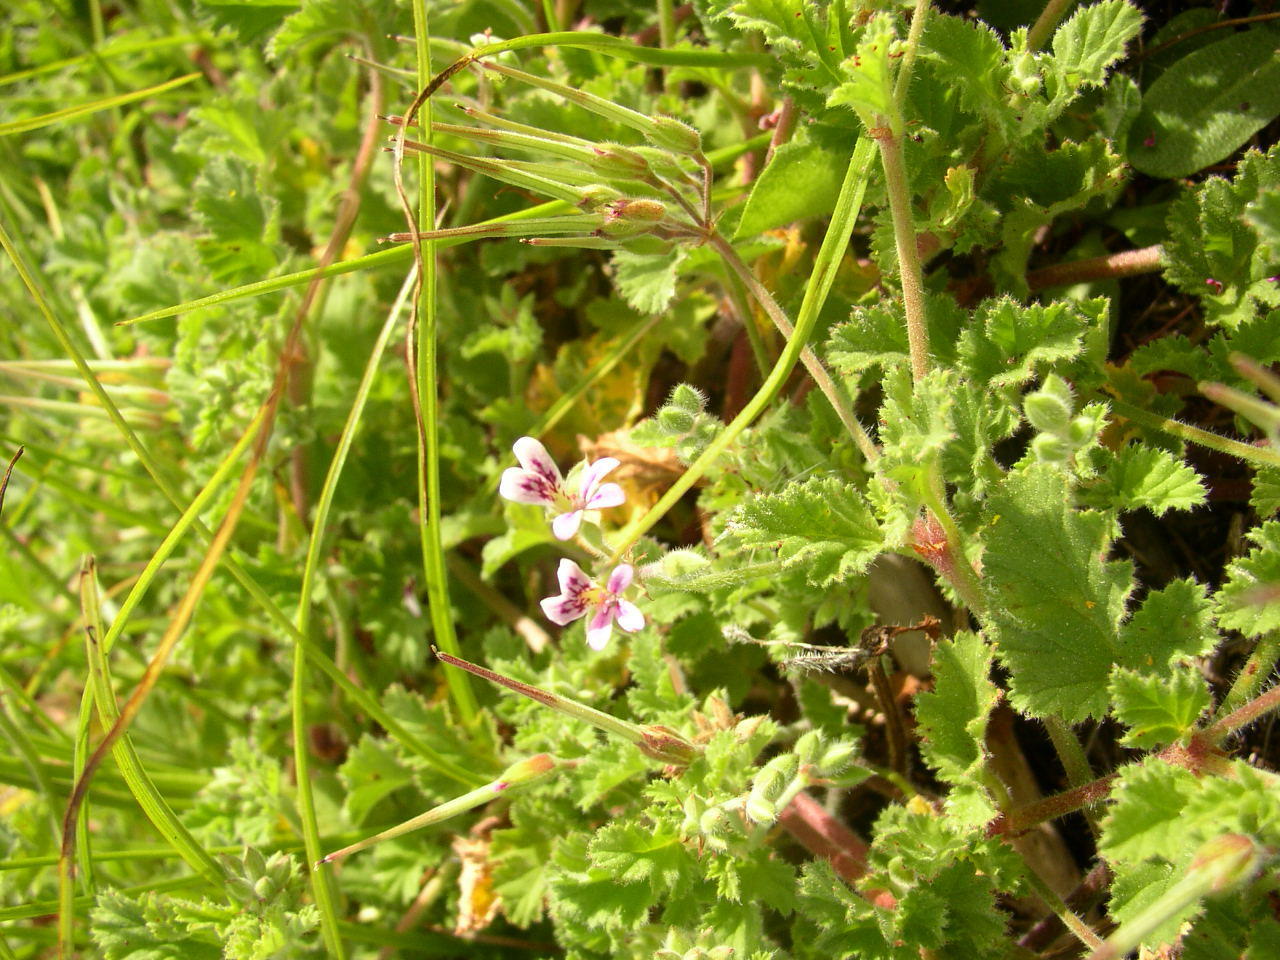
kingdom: Plantae
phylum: Tracheophyta
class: Magnoliopsida
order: Geraniales
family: Geraniaceae
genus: Pelargonium
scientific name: Pelargonium althaeoides
